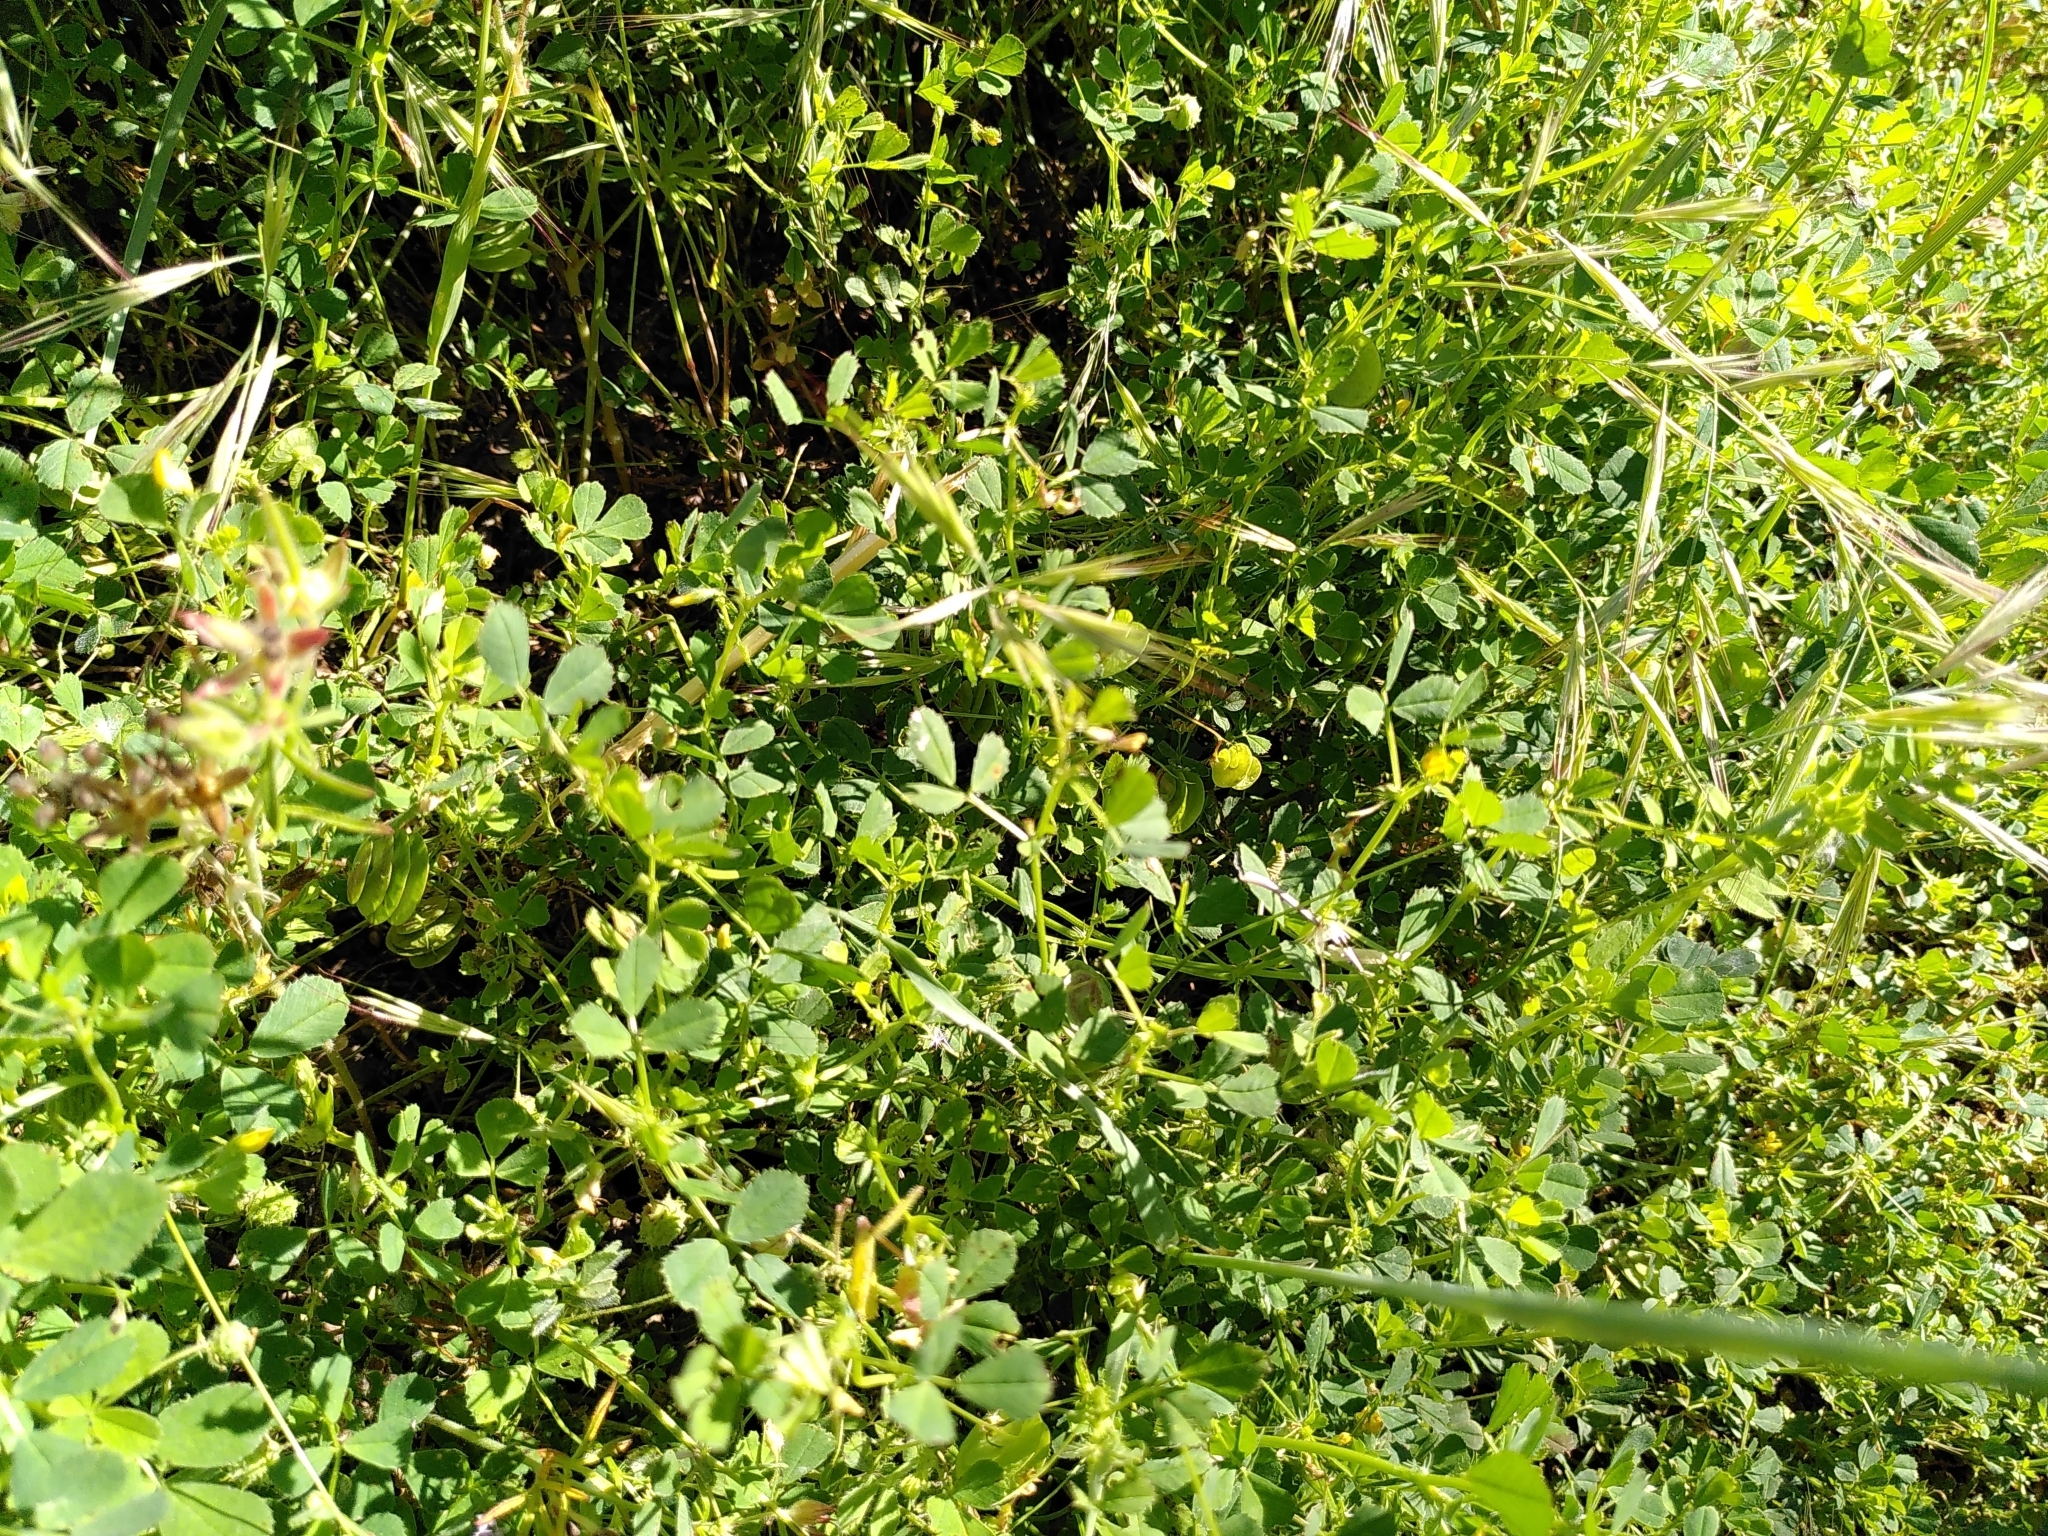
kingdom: Plantae
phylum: Tracheophyta
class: Magnoliopsida
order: Fabales
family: Fabaceae
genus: Medicago
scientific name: Medicago orbicularis
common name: Button medick
